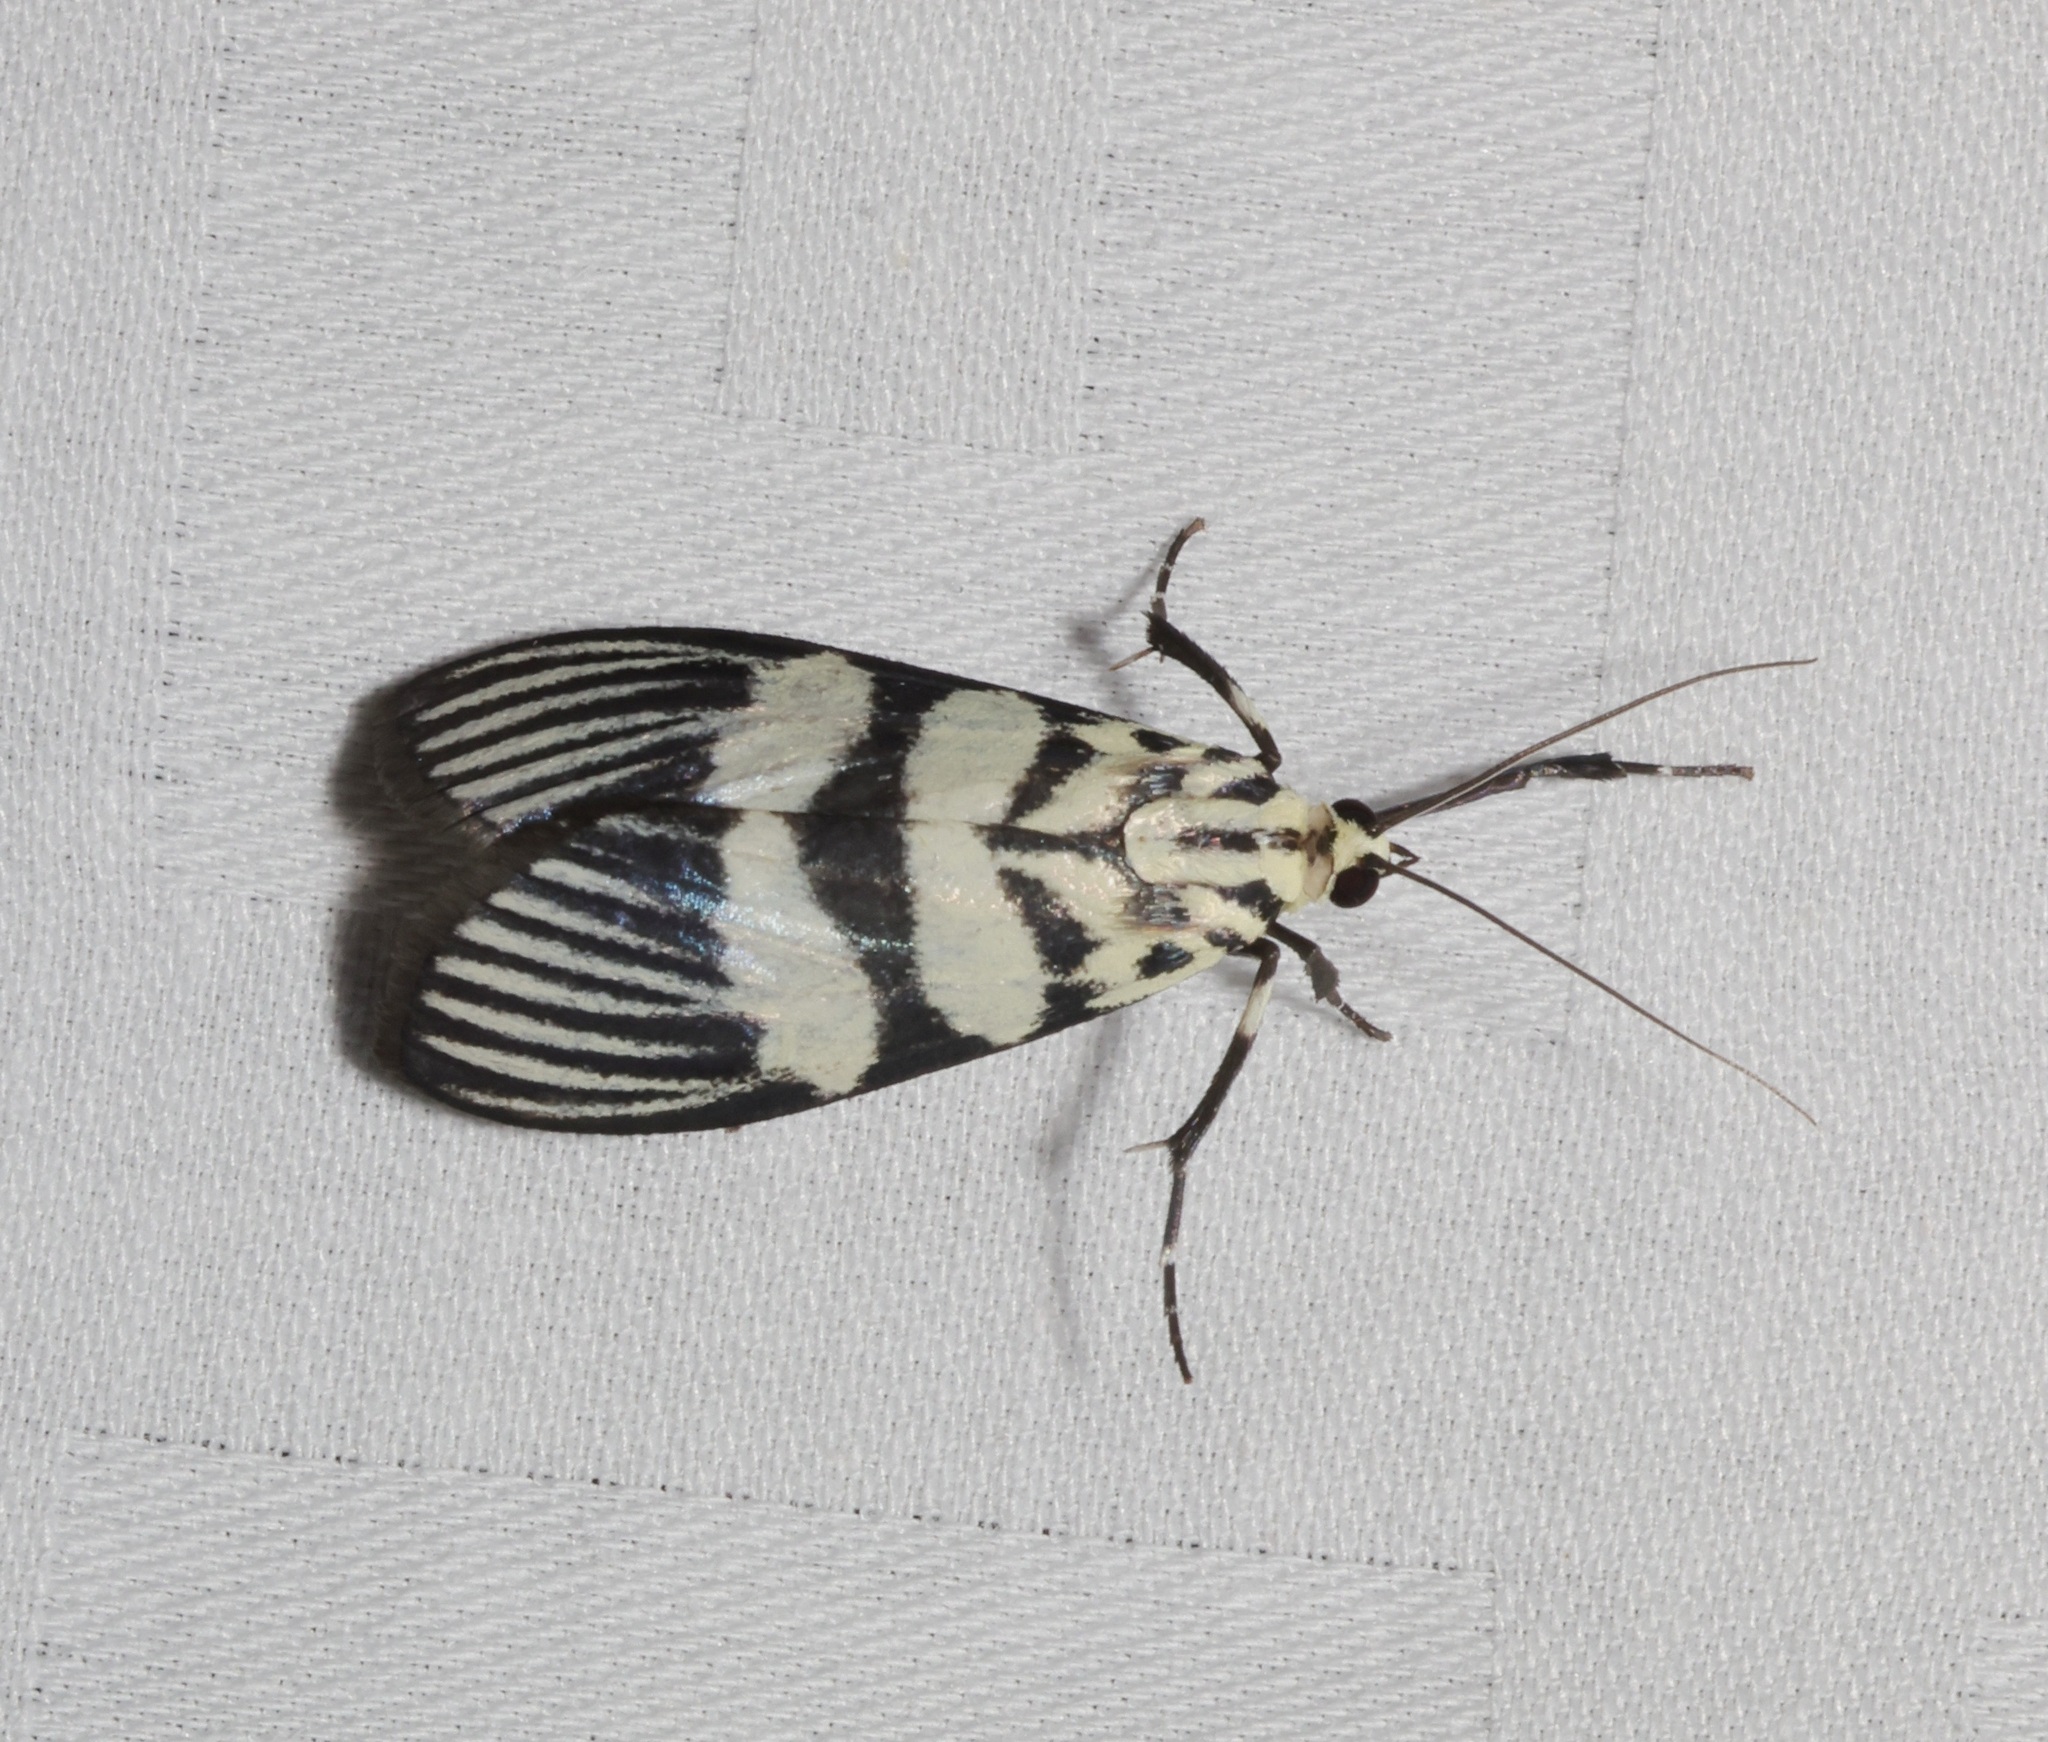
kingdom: Animalia
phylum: Arthropoda
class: Insecta
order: Lepidoptera
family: Crambidae
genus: Heortia
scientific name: Heortia vitessoides
